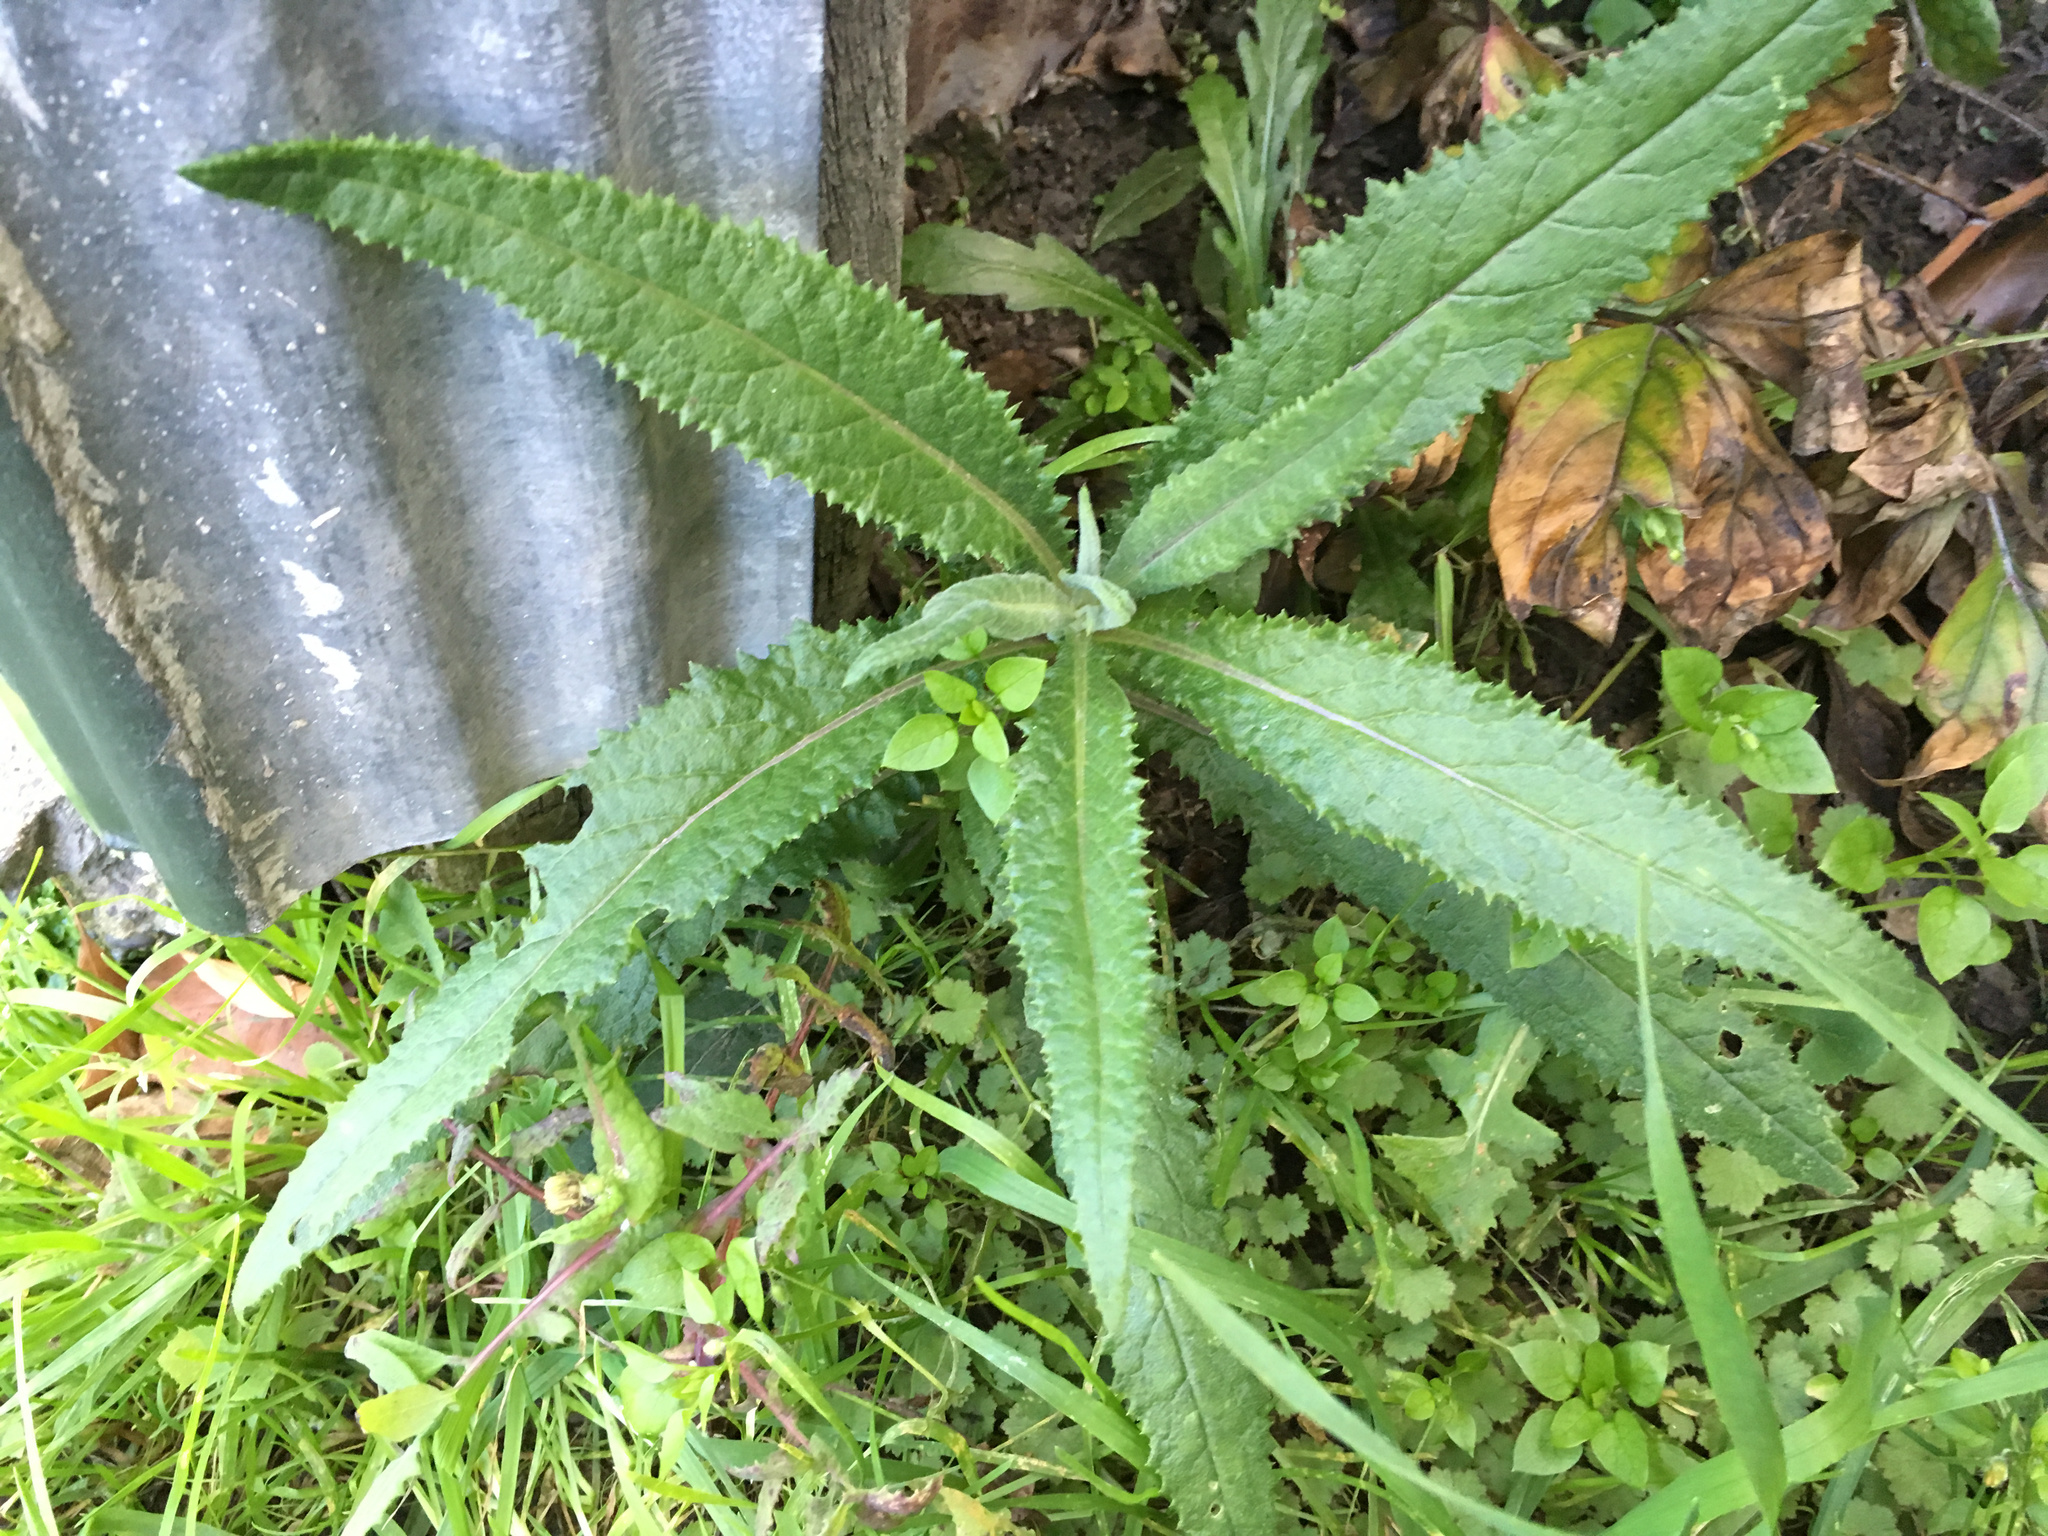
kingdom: Plantae
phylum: Tracheophyta
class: Magnoliopsida
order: Asterales
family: Asteraceae
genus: Senecio
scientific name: Senecio minimus
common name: Toothed fireweed
